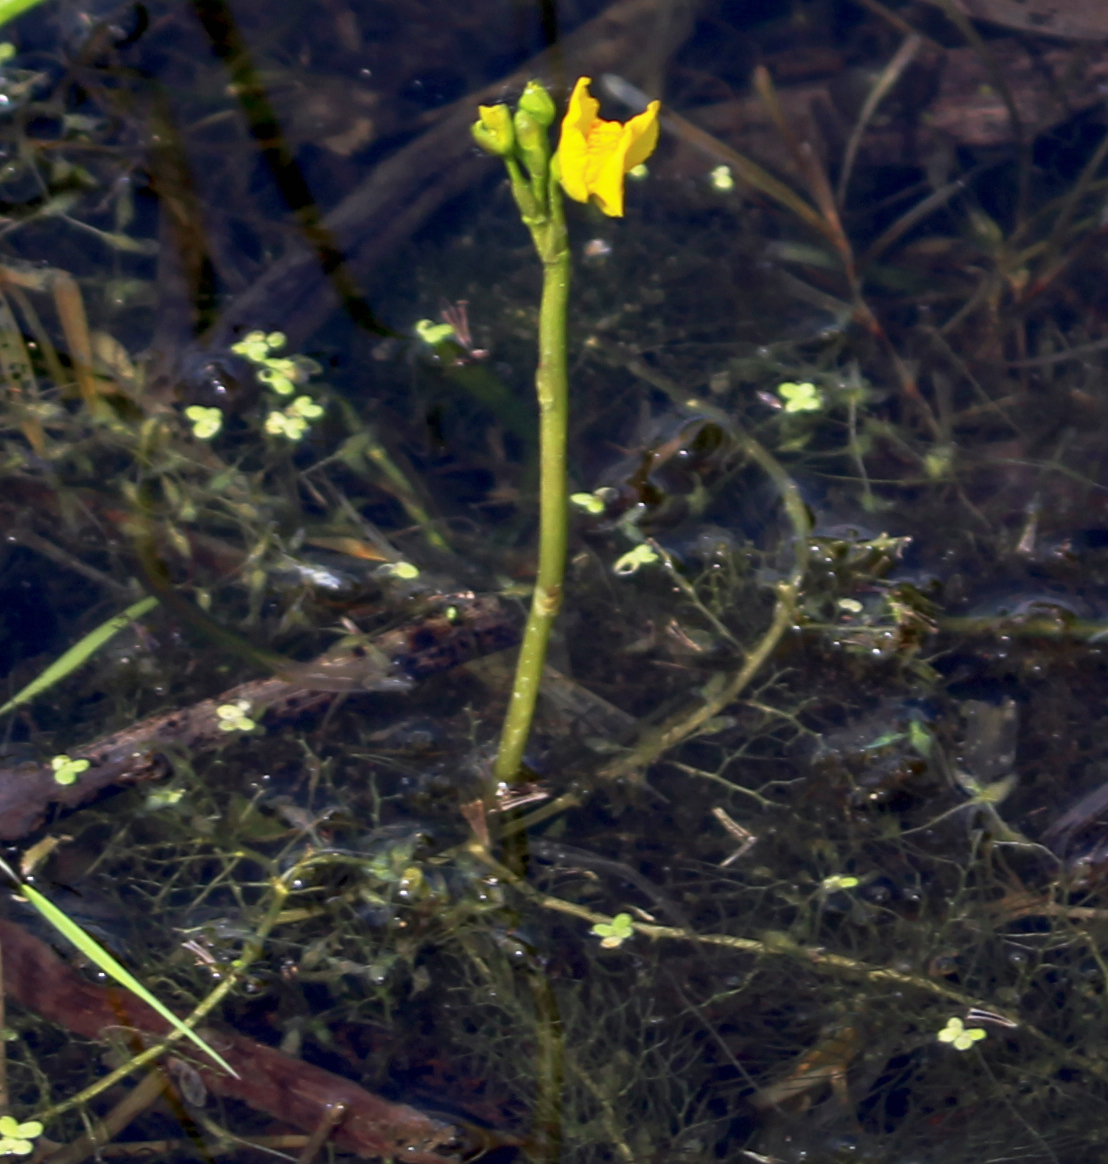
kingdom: Plantae
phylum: Tracheophyta
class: Magnoliopsida
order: Lamiales
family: Lentibulariaceae
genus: Utricularia
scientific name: Utricularia macrorhiza
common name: Common bladderwort
